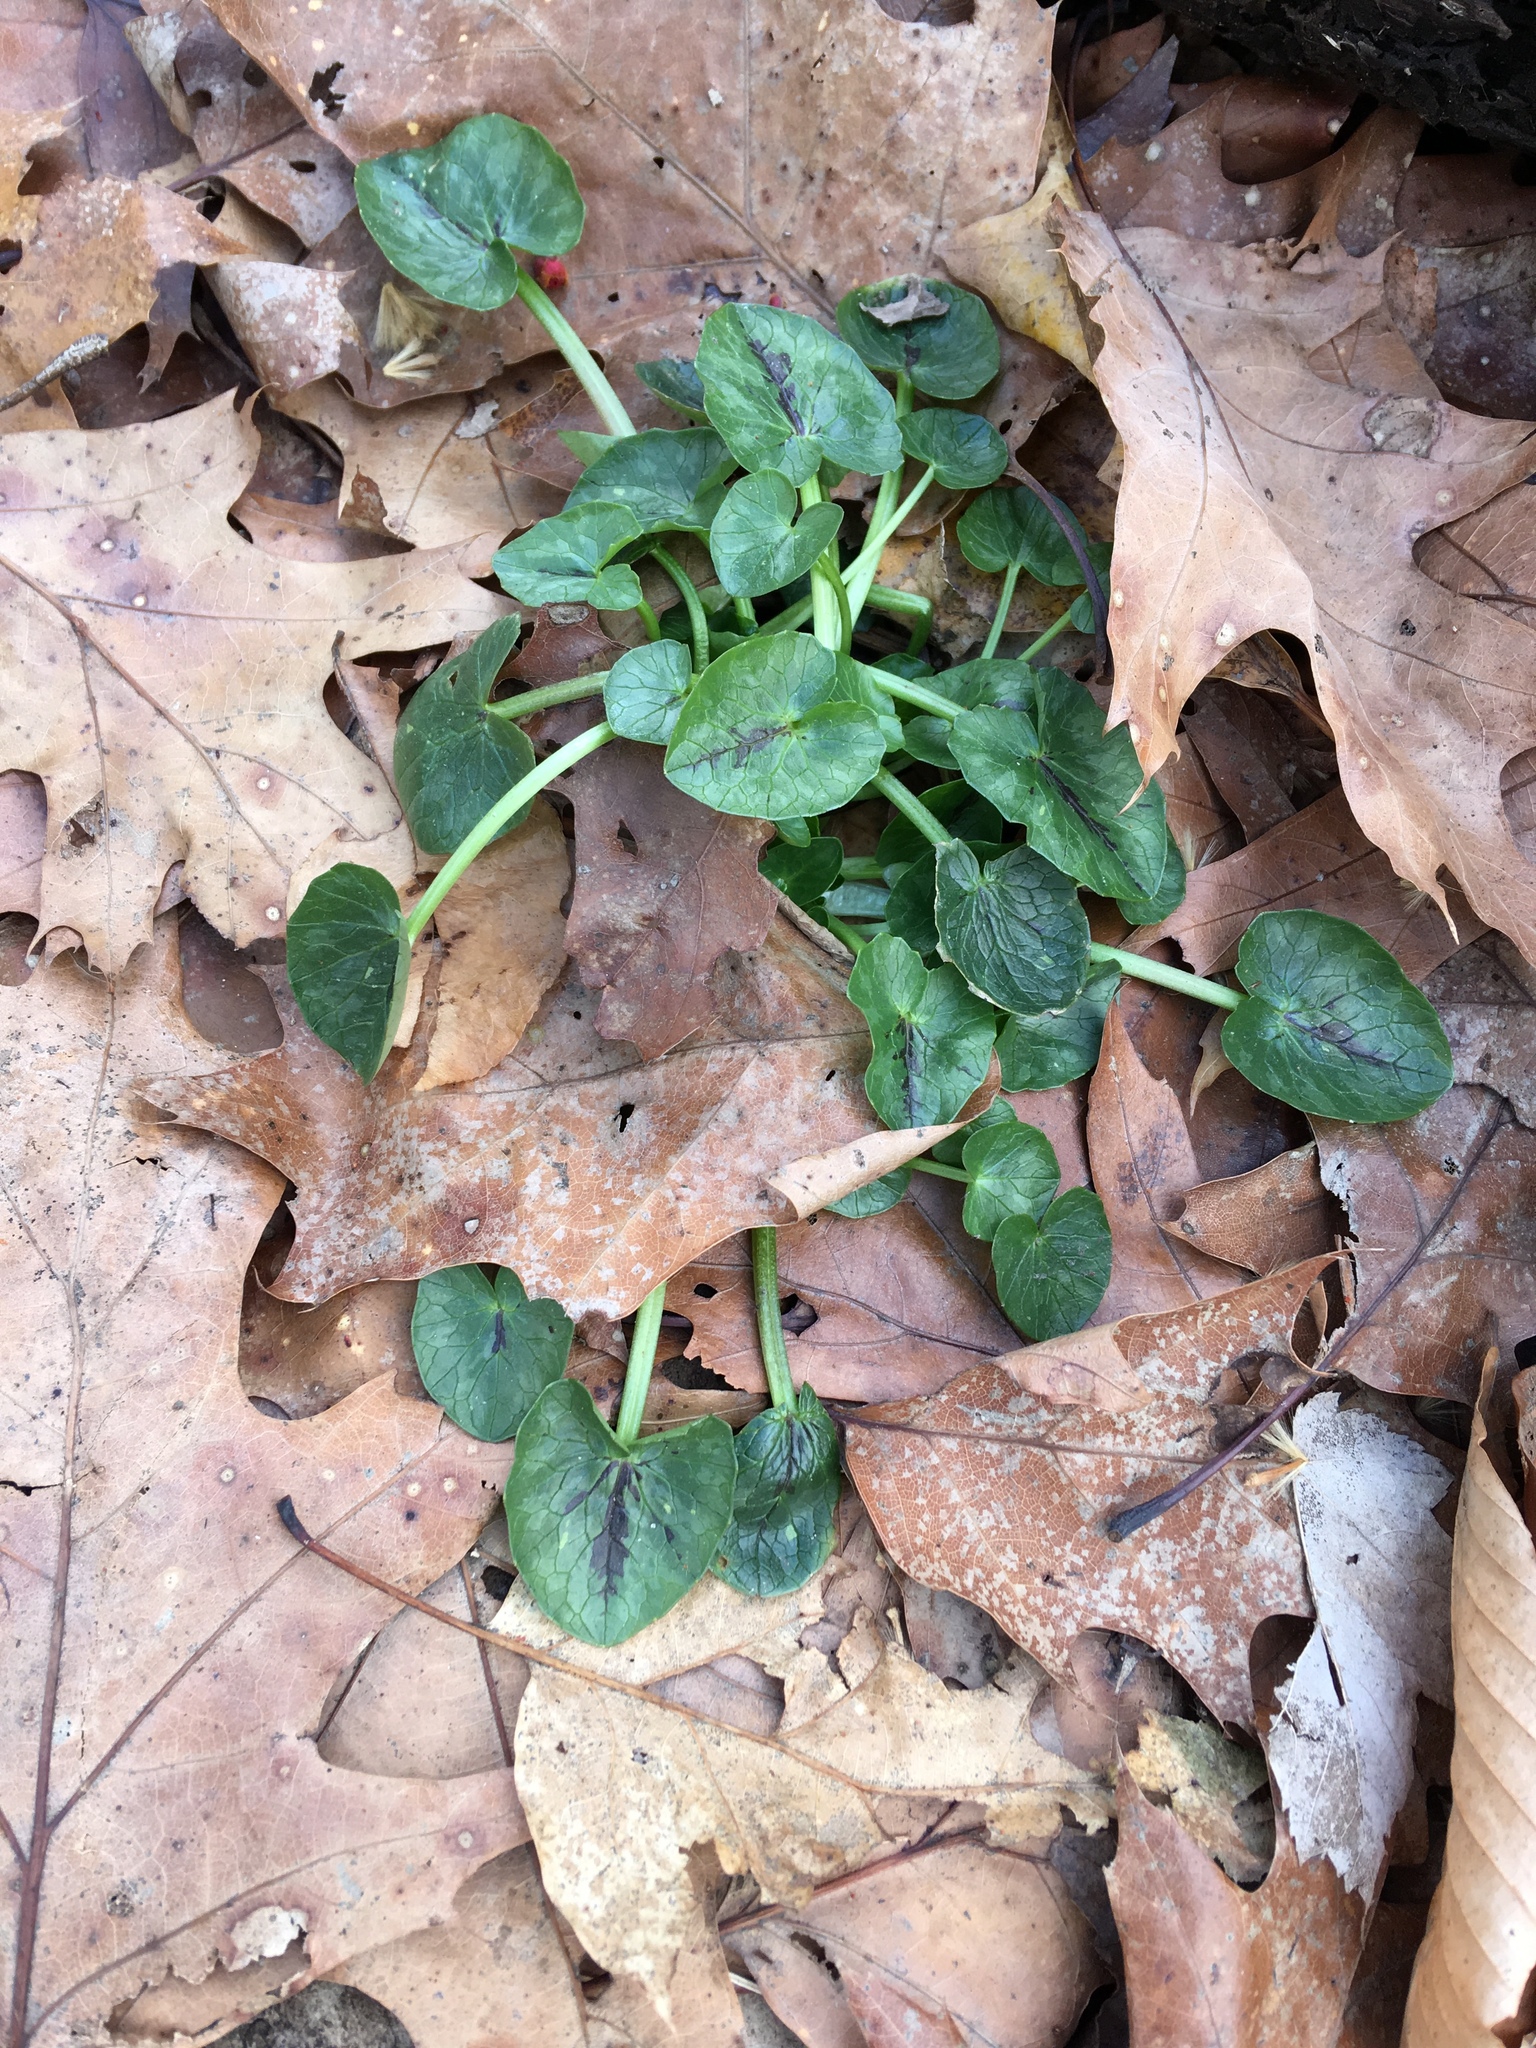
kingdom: Plantae
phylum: Tracheophyta
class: Magnoliopsida
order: Ranunculales
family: Ranunculaceae
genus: Ficaria
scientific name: Ficaria verna
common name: Lesser celandine
